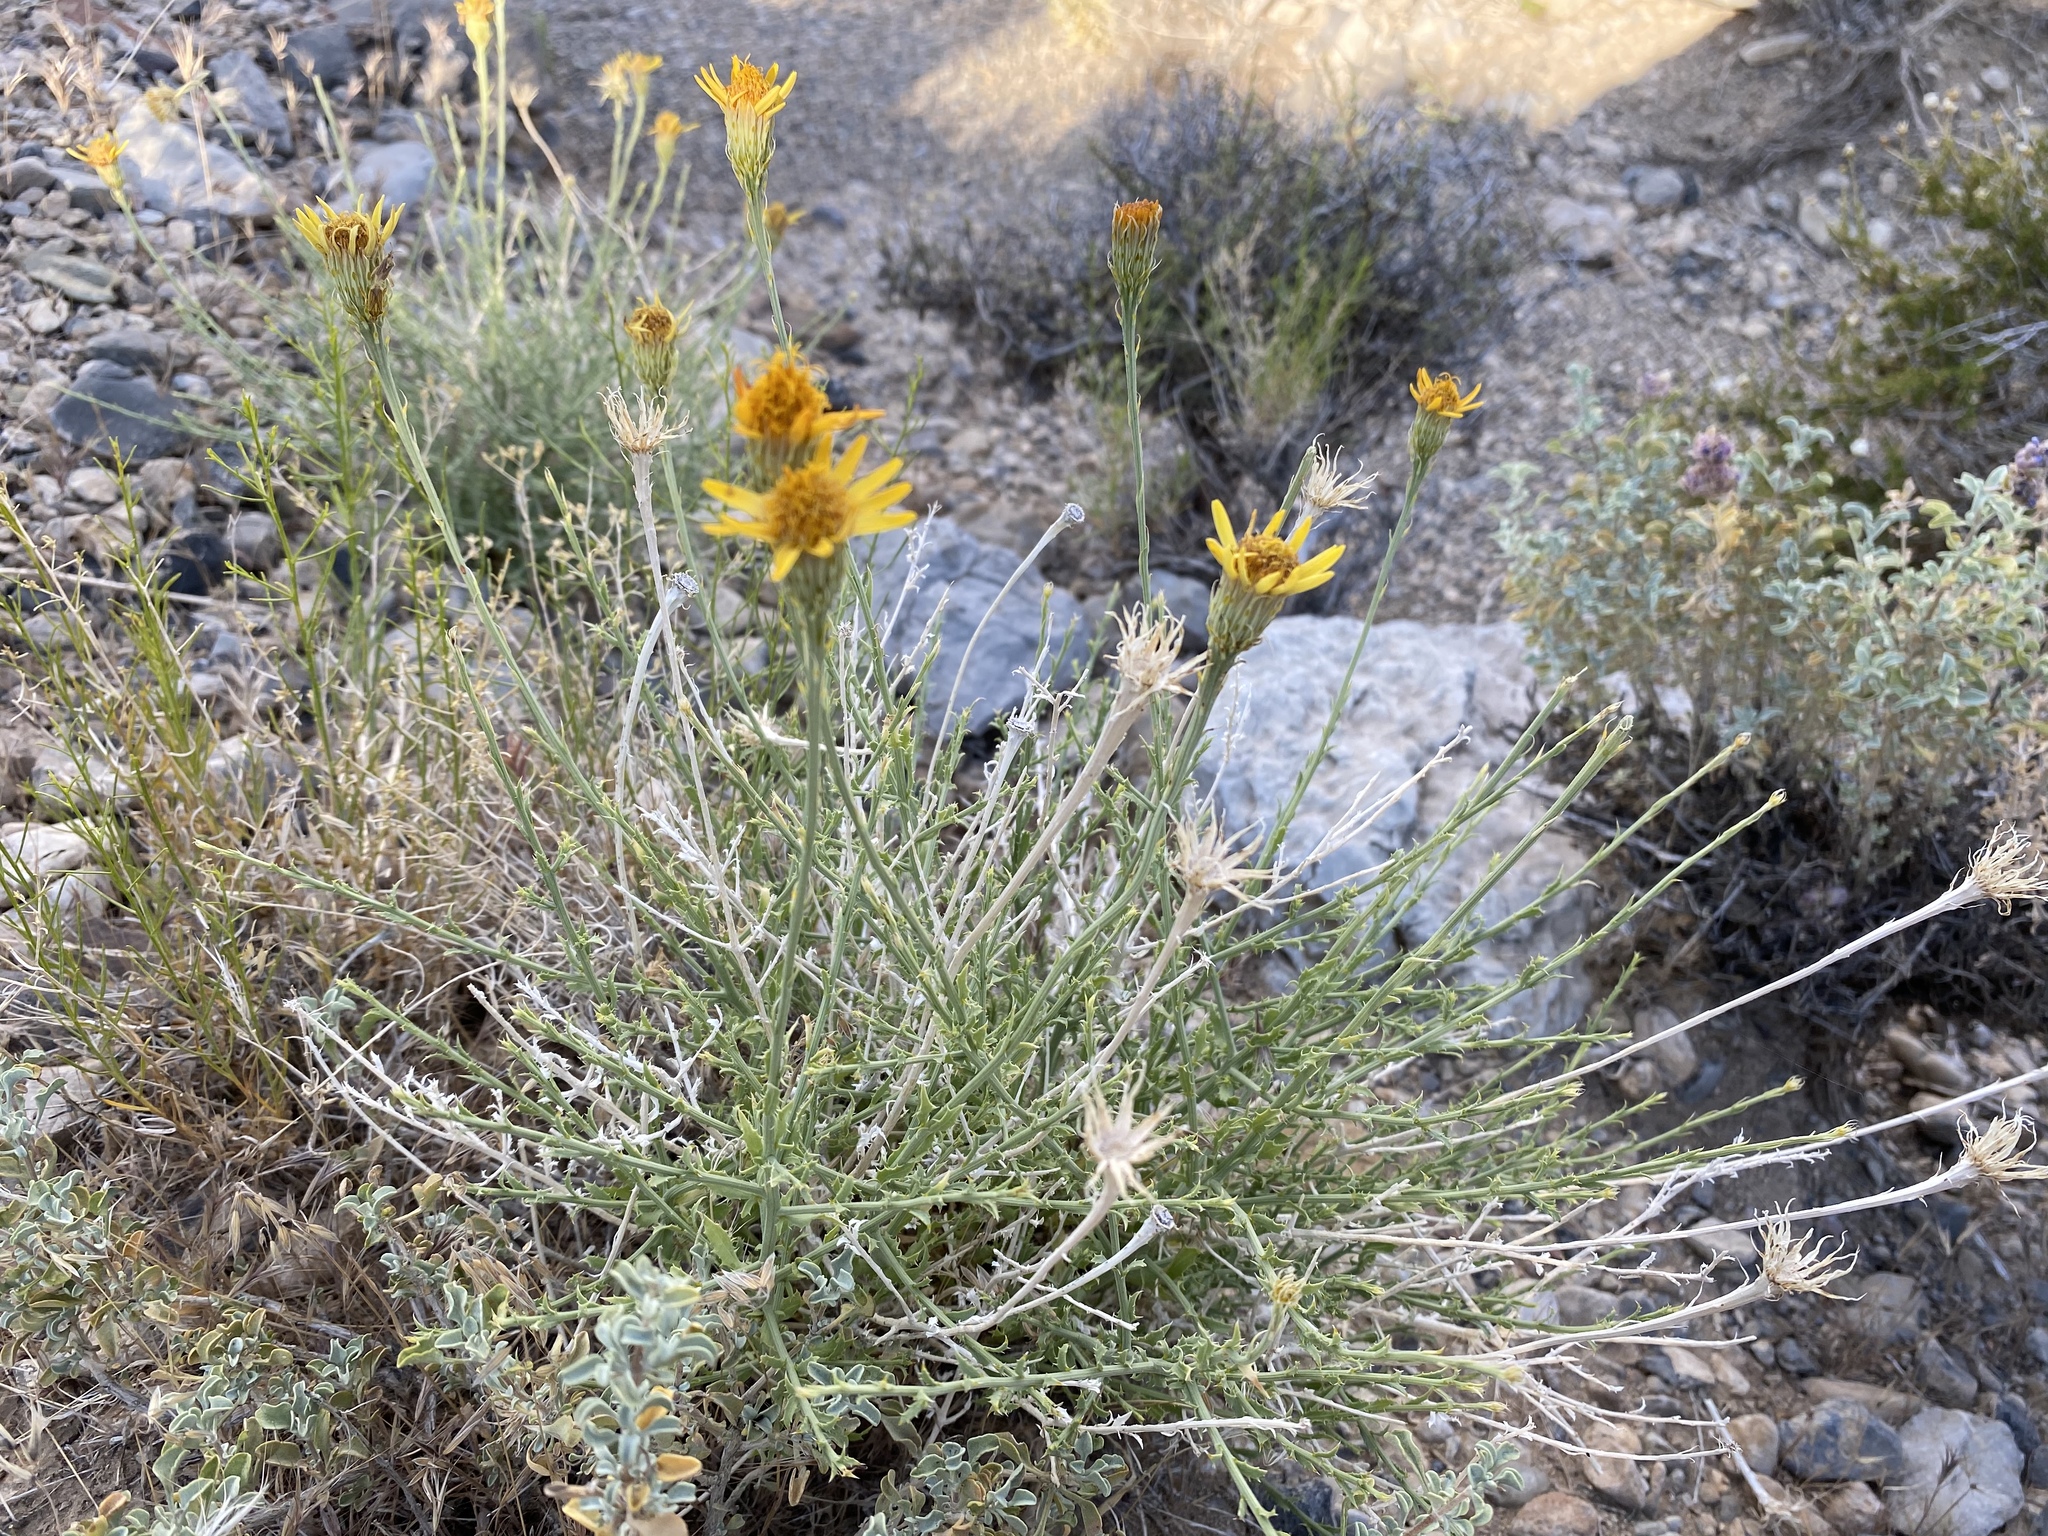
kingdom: Plantae
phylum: Tracheophyta
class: Magnoliopsida
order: Asterales
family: Asteraceae
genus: Adenophyllum
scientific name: Adenophyllum cooperi
